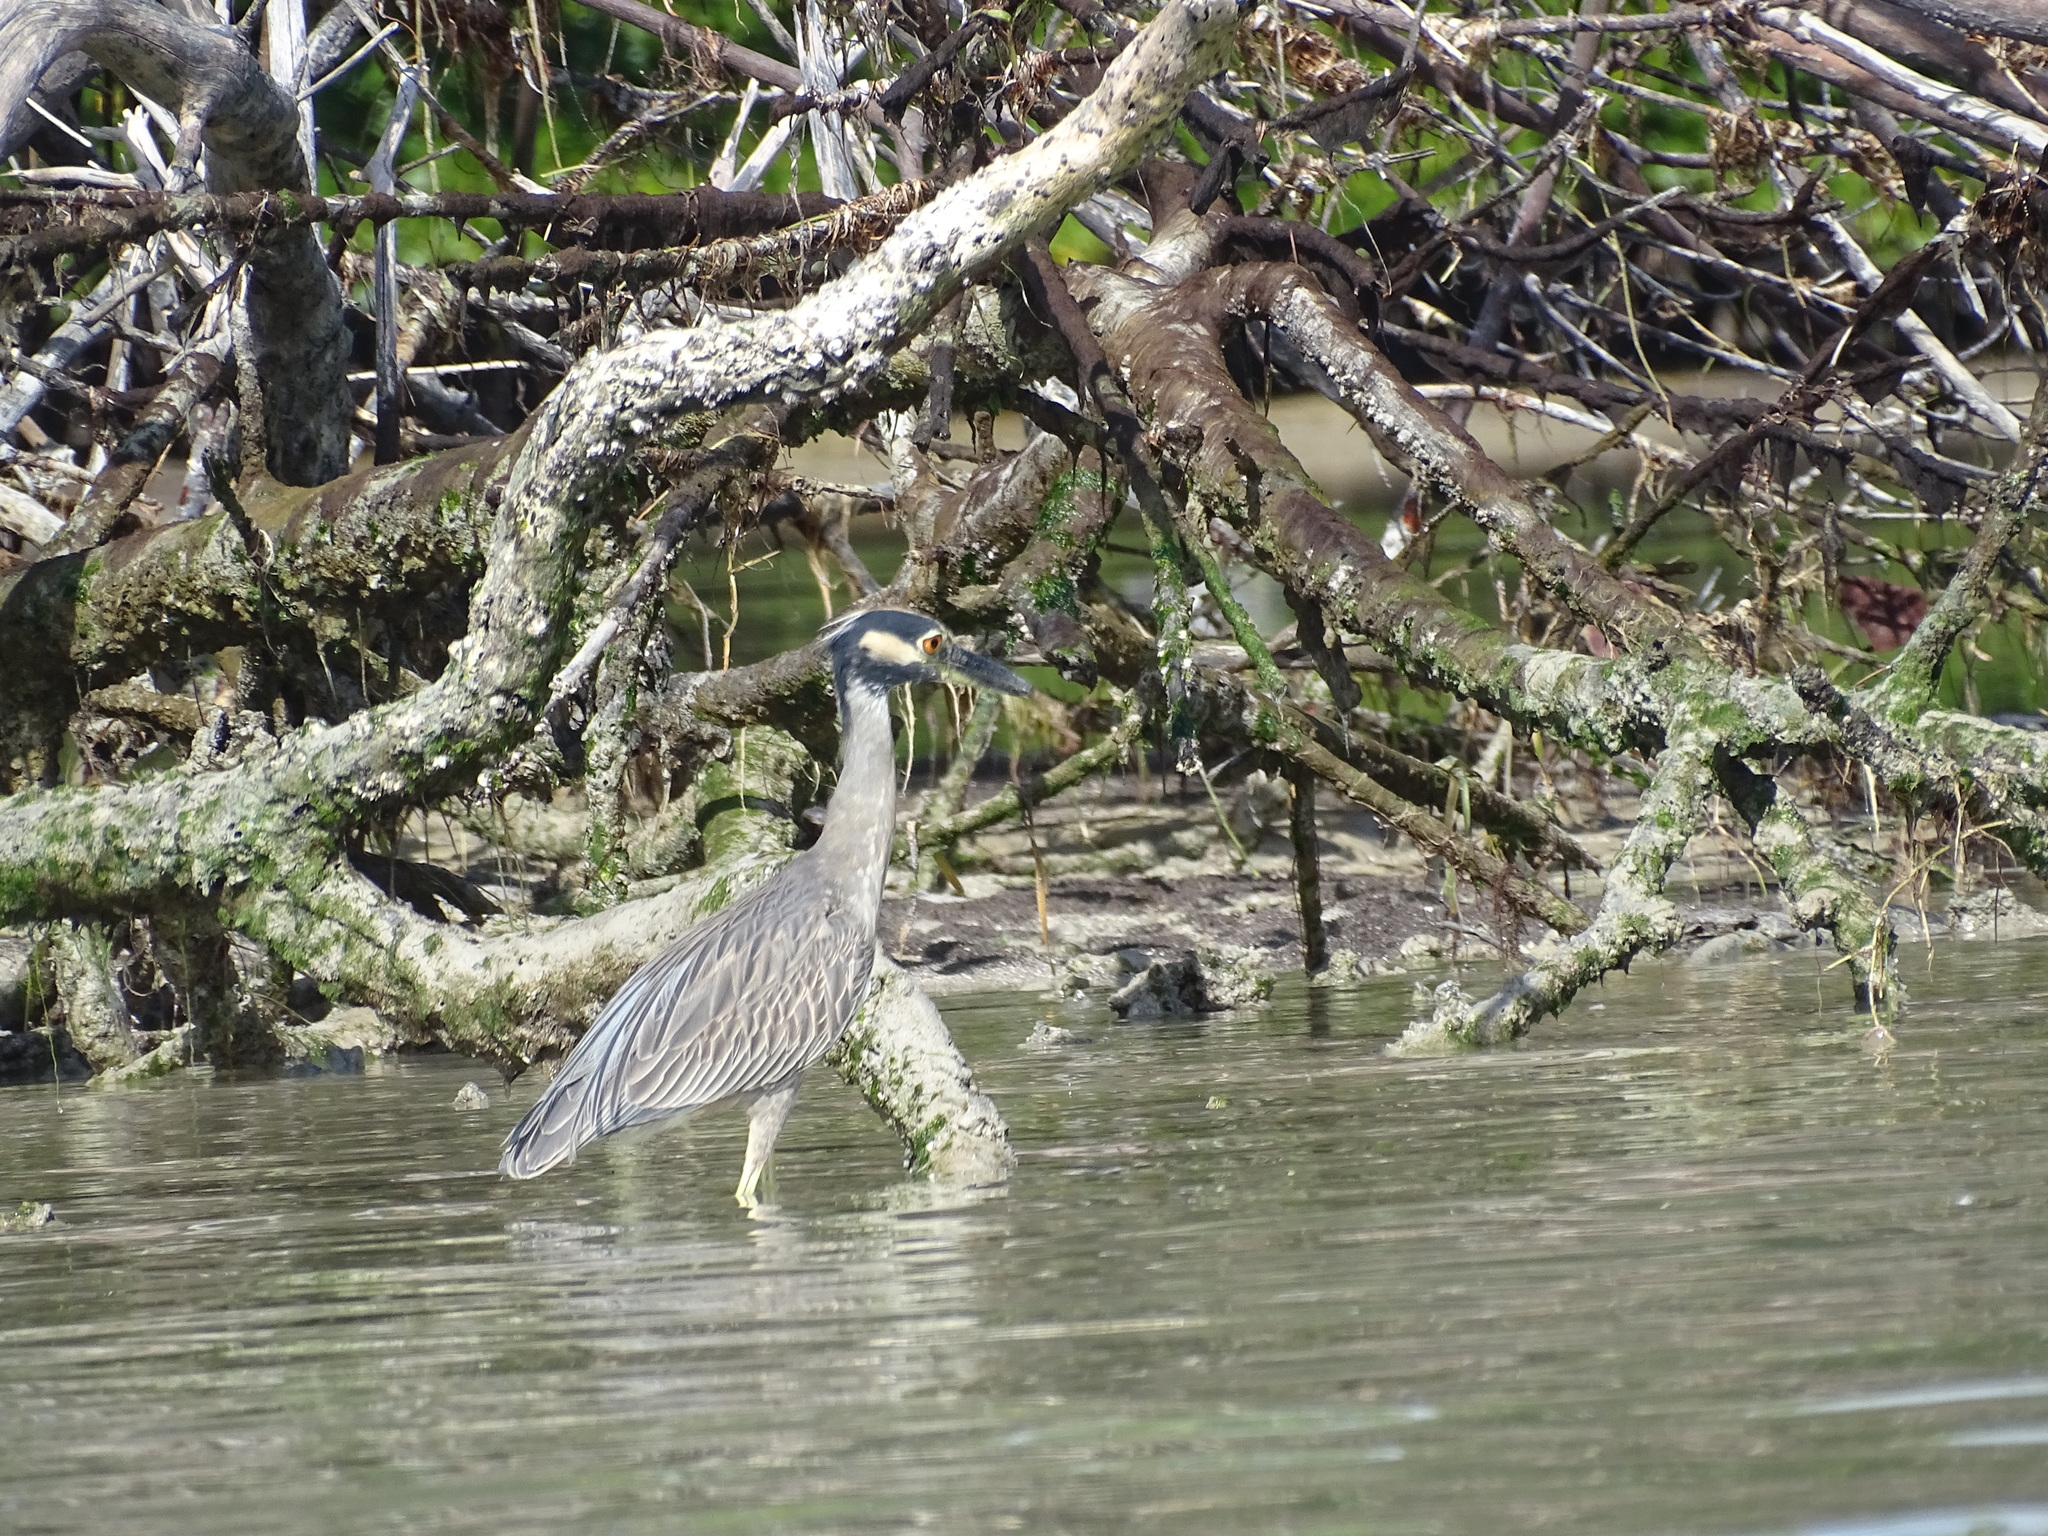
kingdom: Animalia
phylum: Chordata
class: Aves
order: Pelecaniformes
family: Ardeidae
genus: Nyctanassa
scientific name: Nyctanassa violacea
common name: Yellow-crowned night heron
